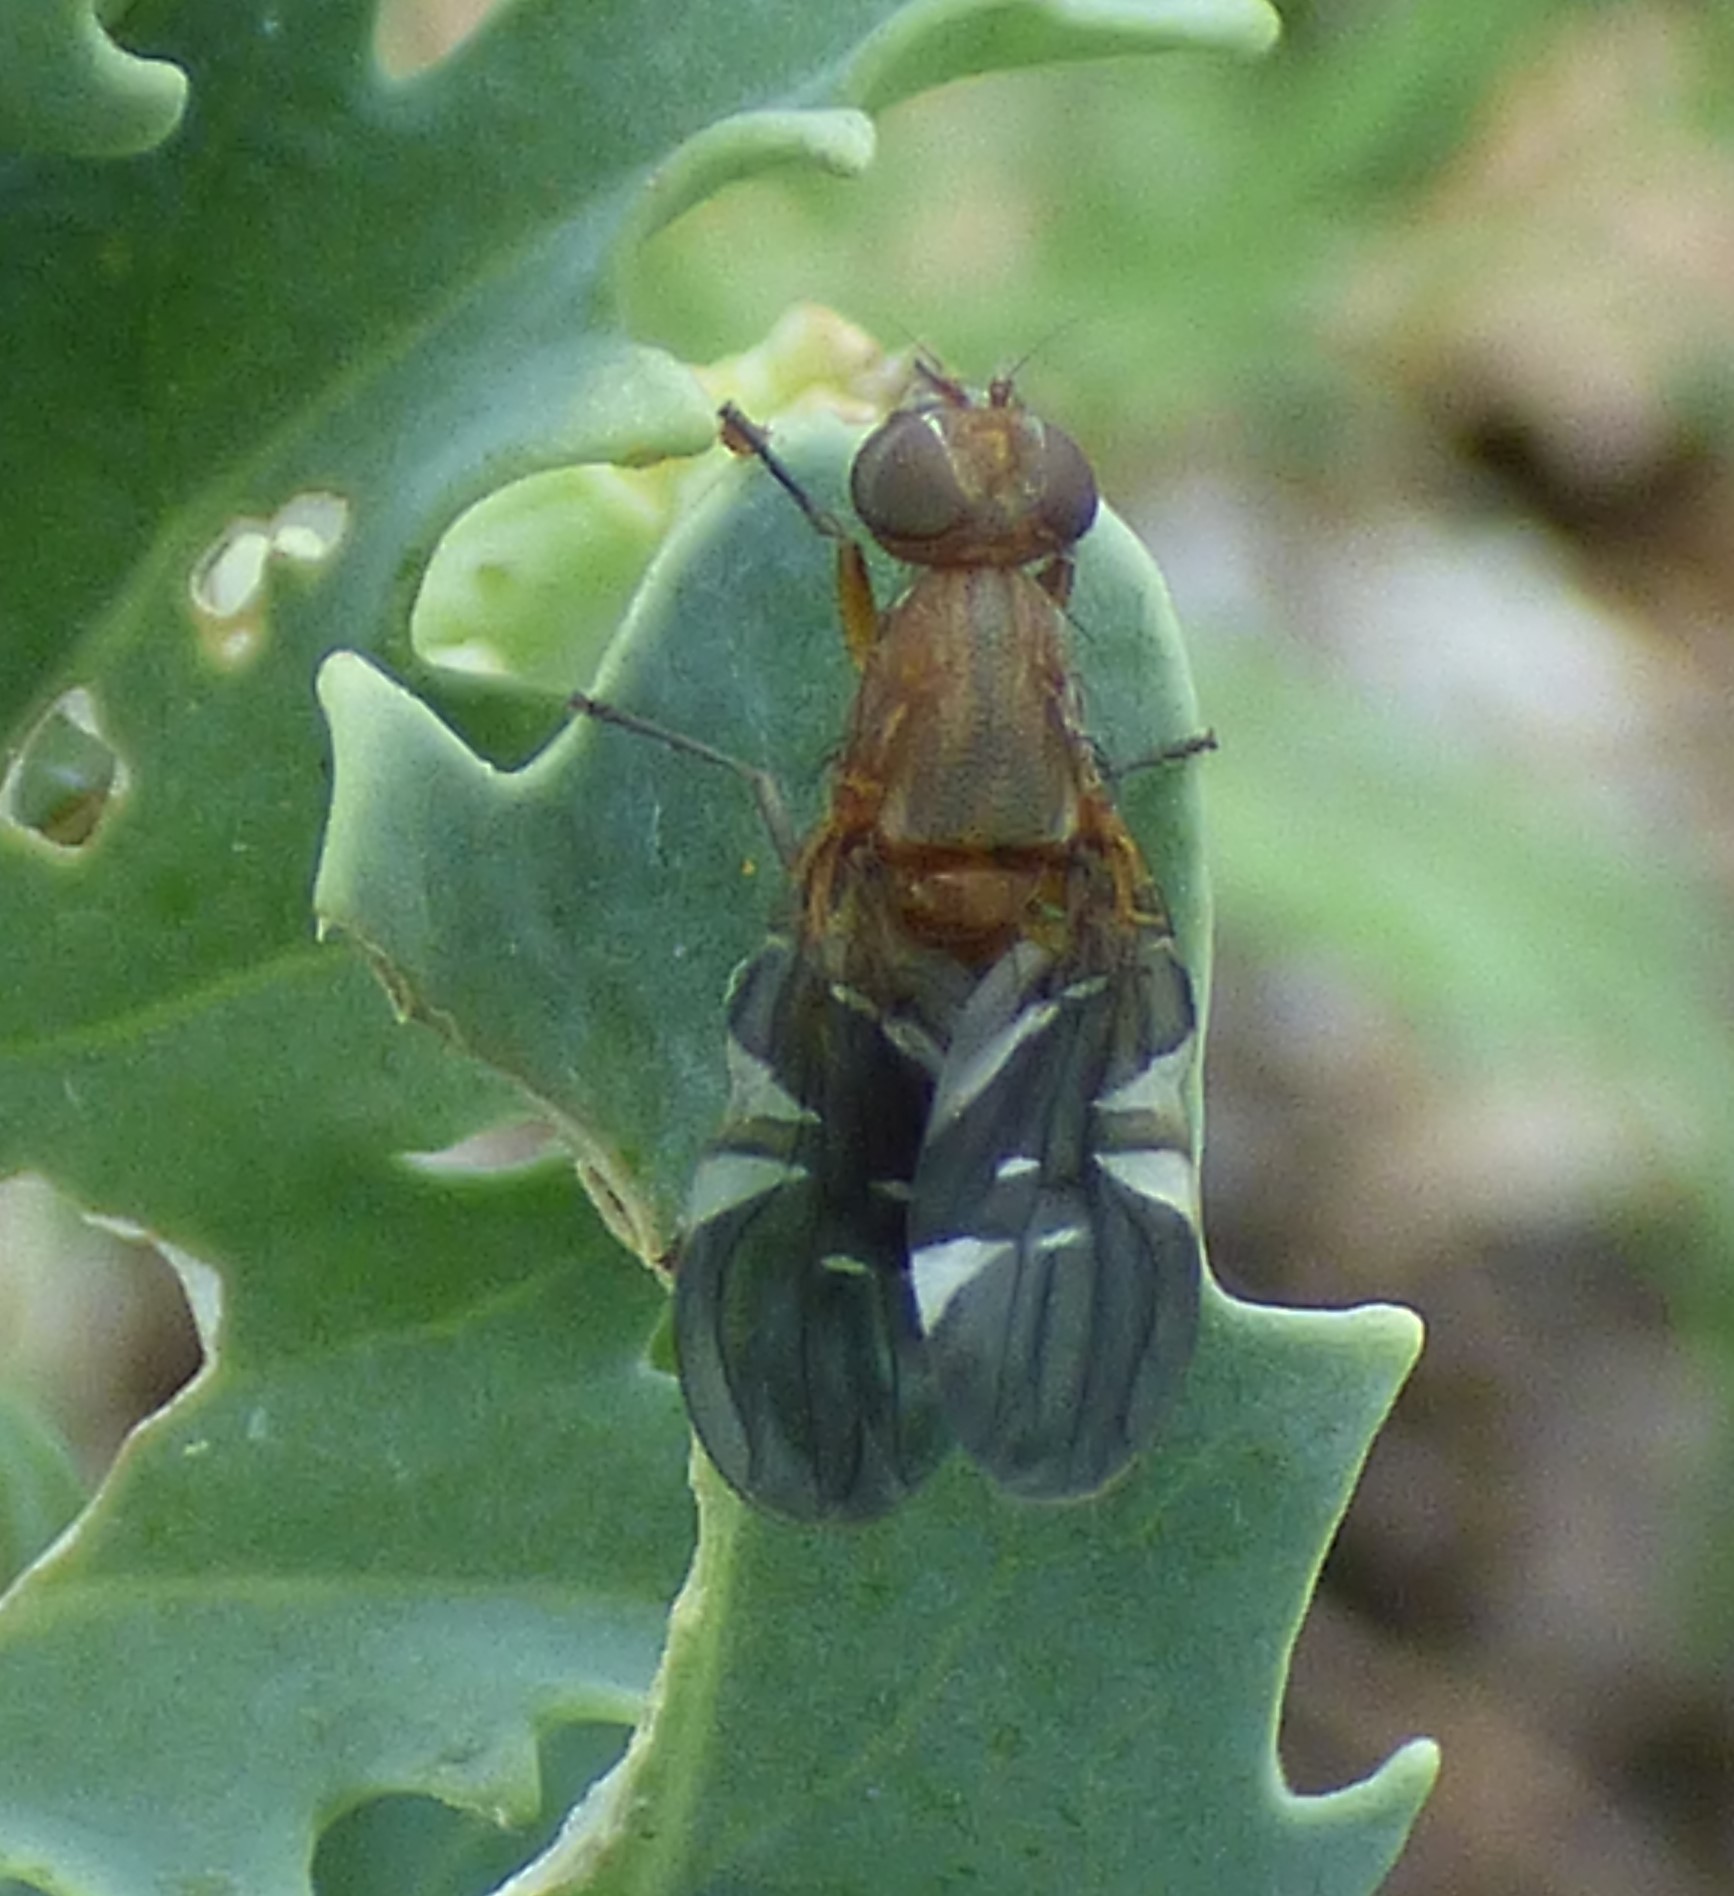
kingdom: Animalia
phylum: Arthropoda
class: Insecta
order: Diptera
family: Ulidiidae
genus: Delphinia
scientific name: Delphinia picta
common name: Common picture-winged fly
